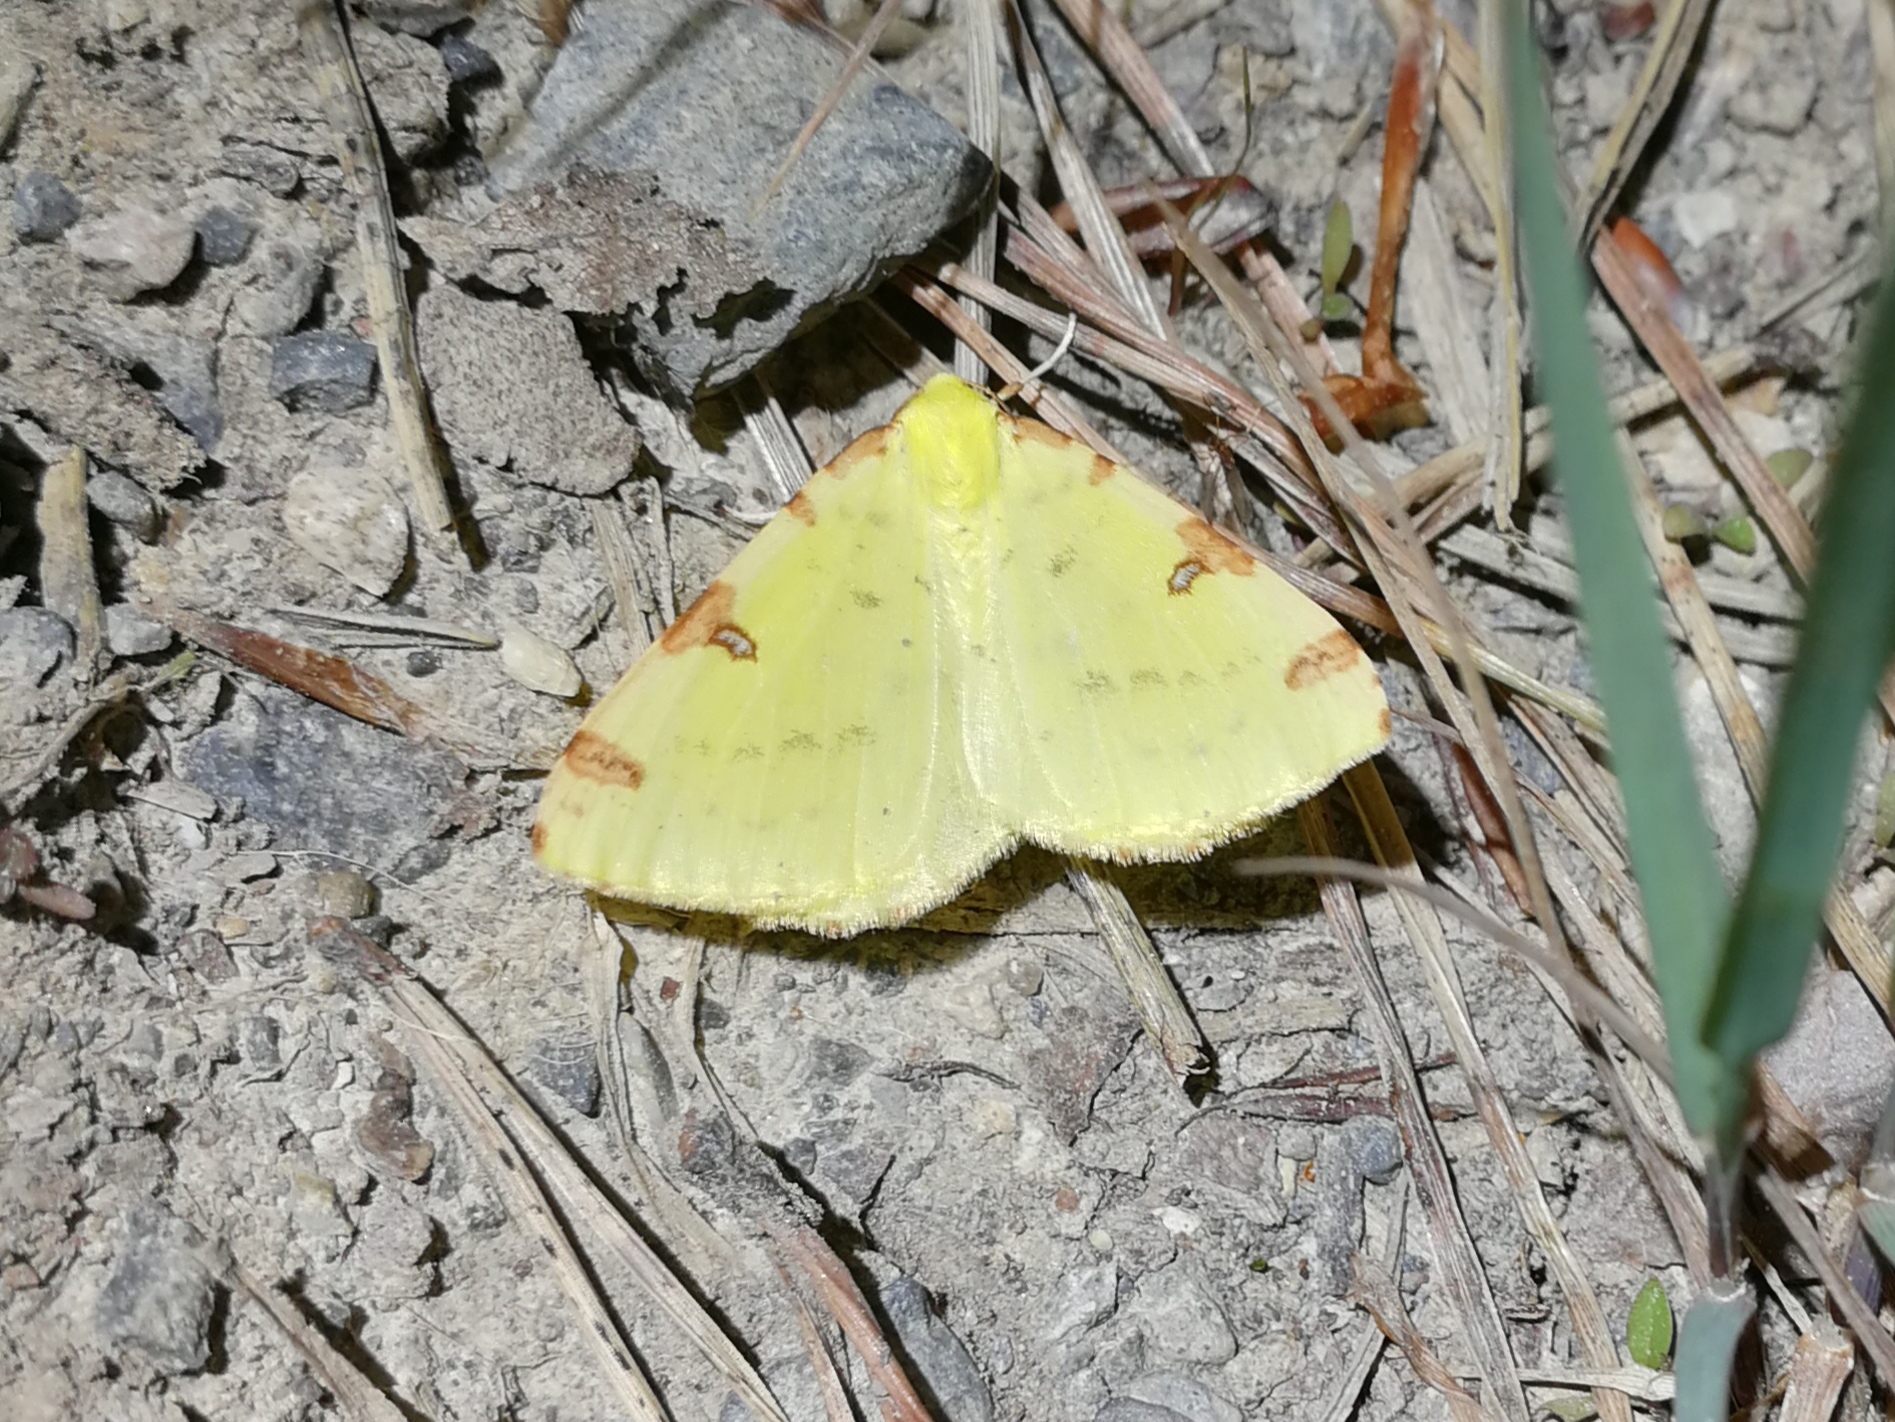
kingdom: Animalia
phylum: Arthropoda
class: Insecta
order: Lepidoptera
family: Geometridae
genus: Opisthograptis
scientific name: Opisthograptis luteolata
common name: Brimstone moth
